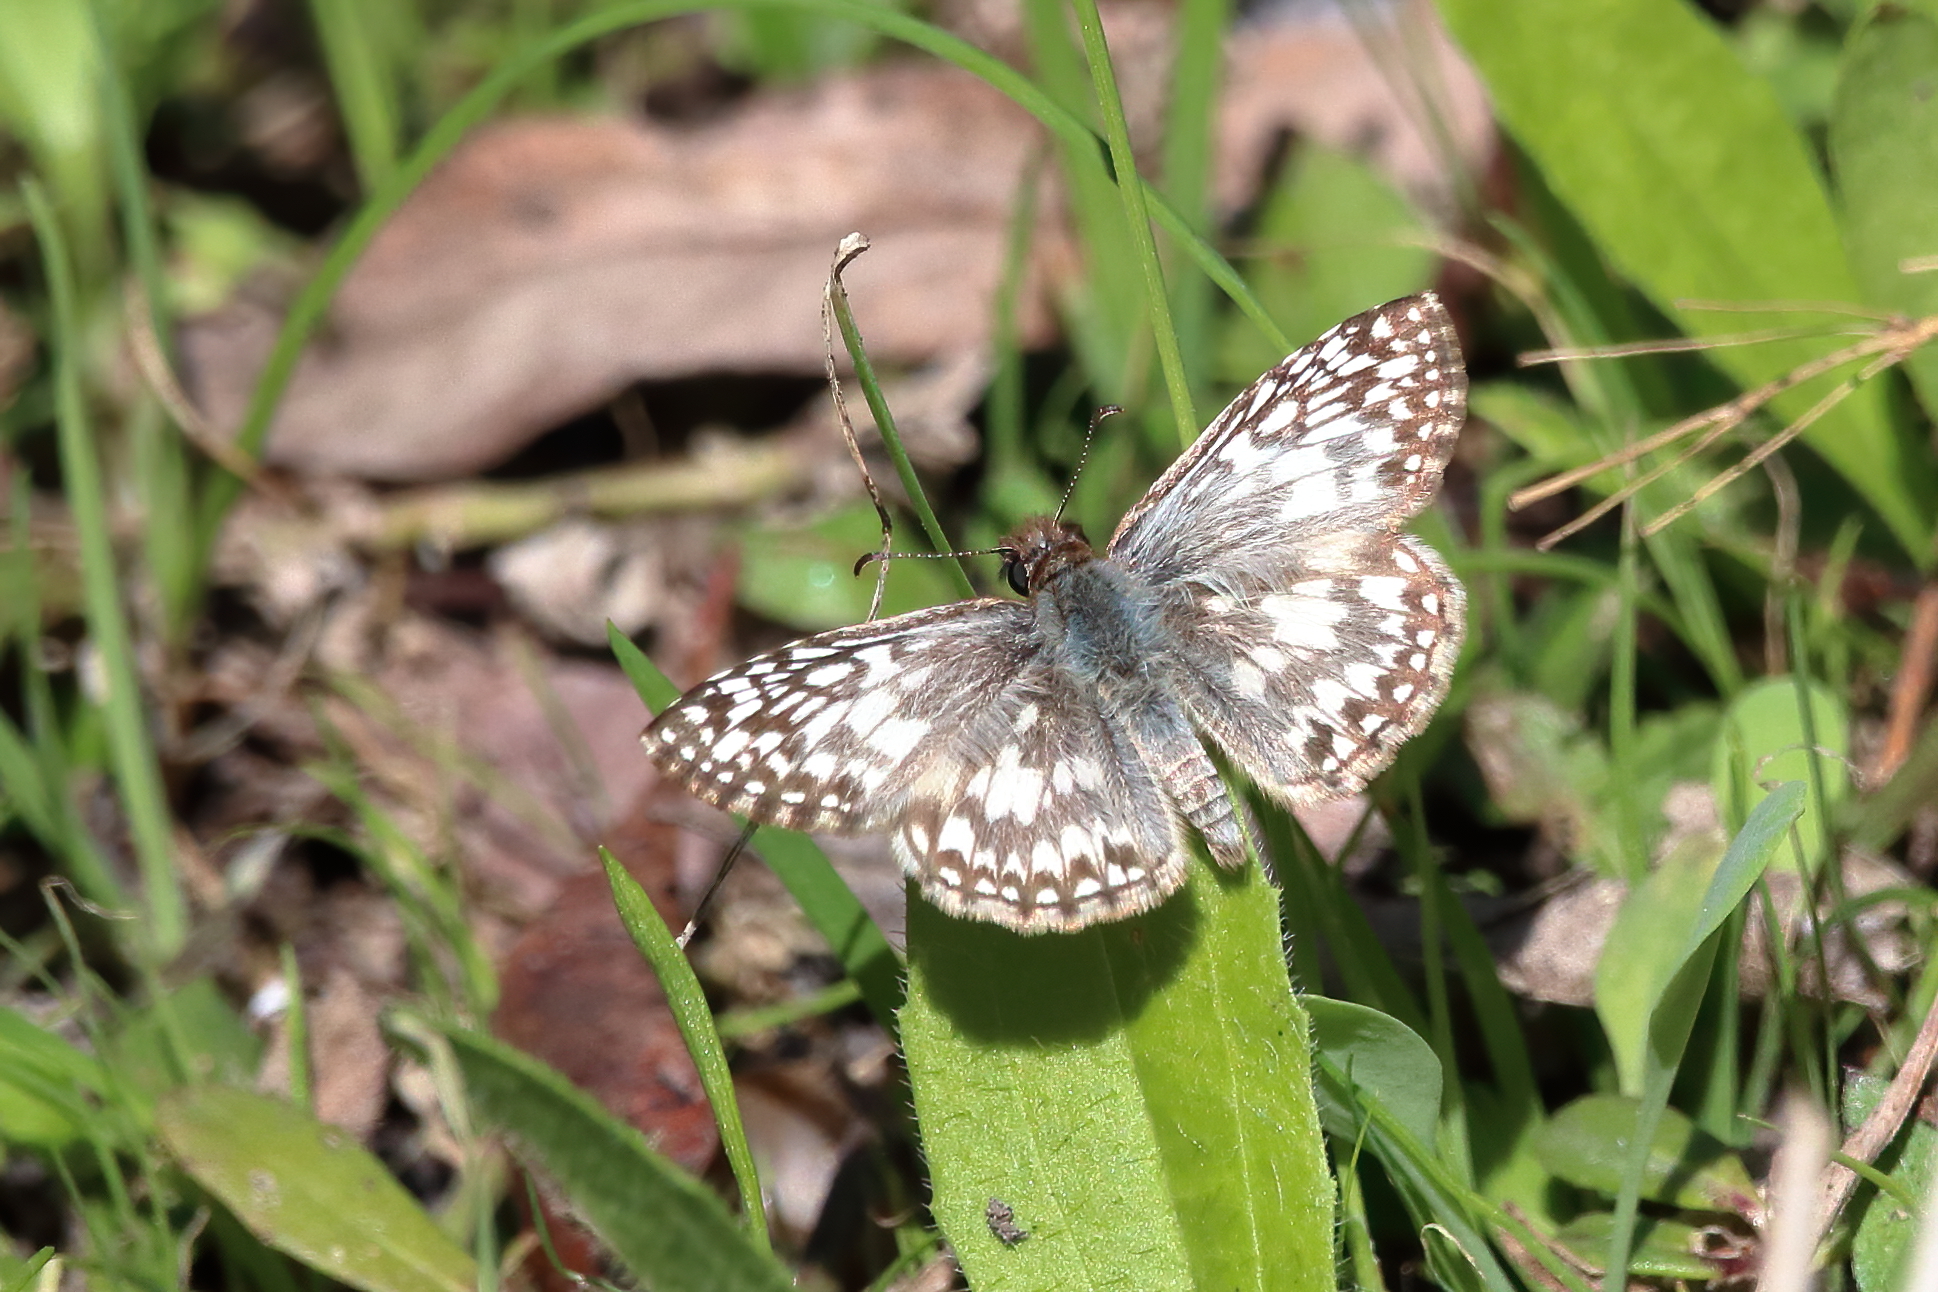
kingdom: Animalia
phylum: Arthropoda
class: Insecta
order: Lepidoptera
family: Hesperiidae
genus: Pyrgus
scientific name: Pyrgus oileus
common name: Tropical checkered-skipper
